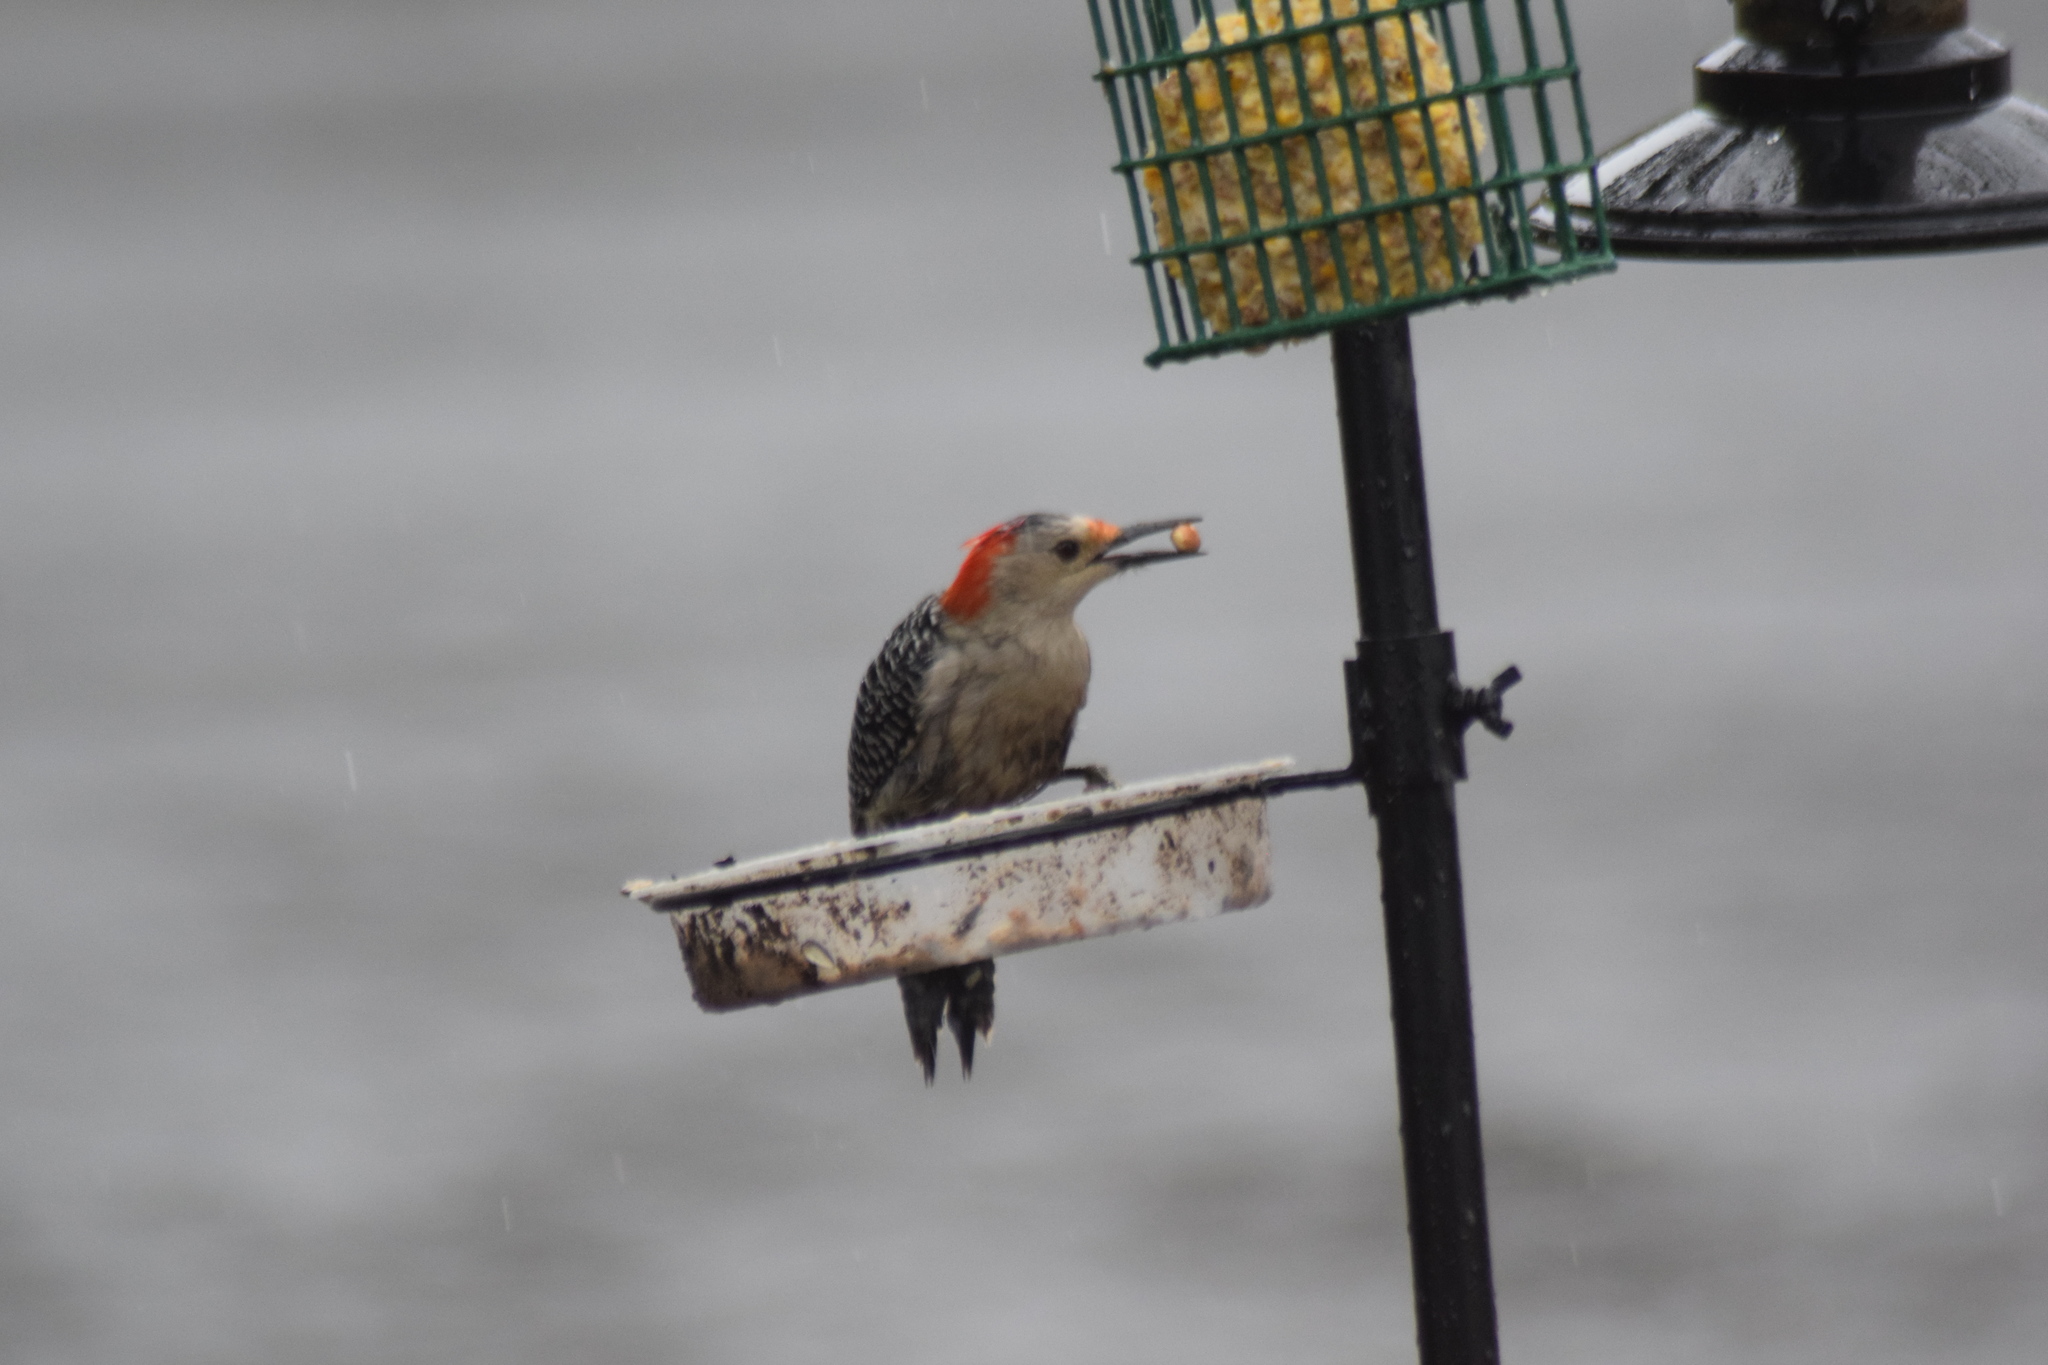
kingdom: Animalia
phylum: Chordata
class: Aves
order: Piciformes
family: Picidae
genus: Melanerpes
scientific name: Melanerpes carolinus
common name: Red-bellied woodpecker
